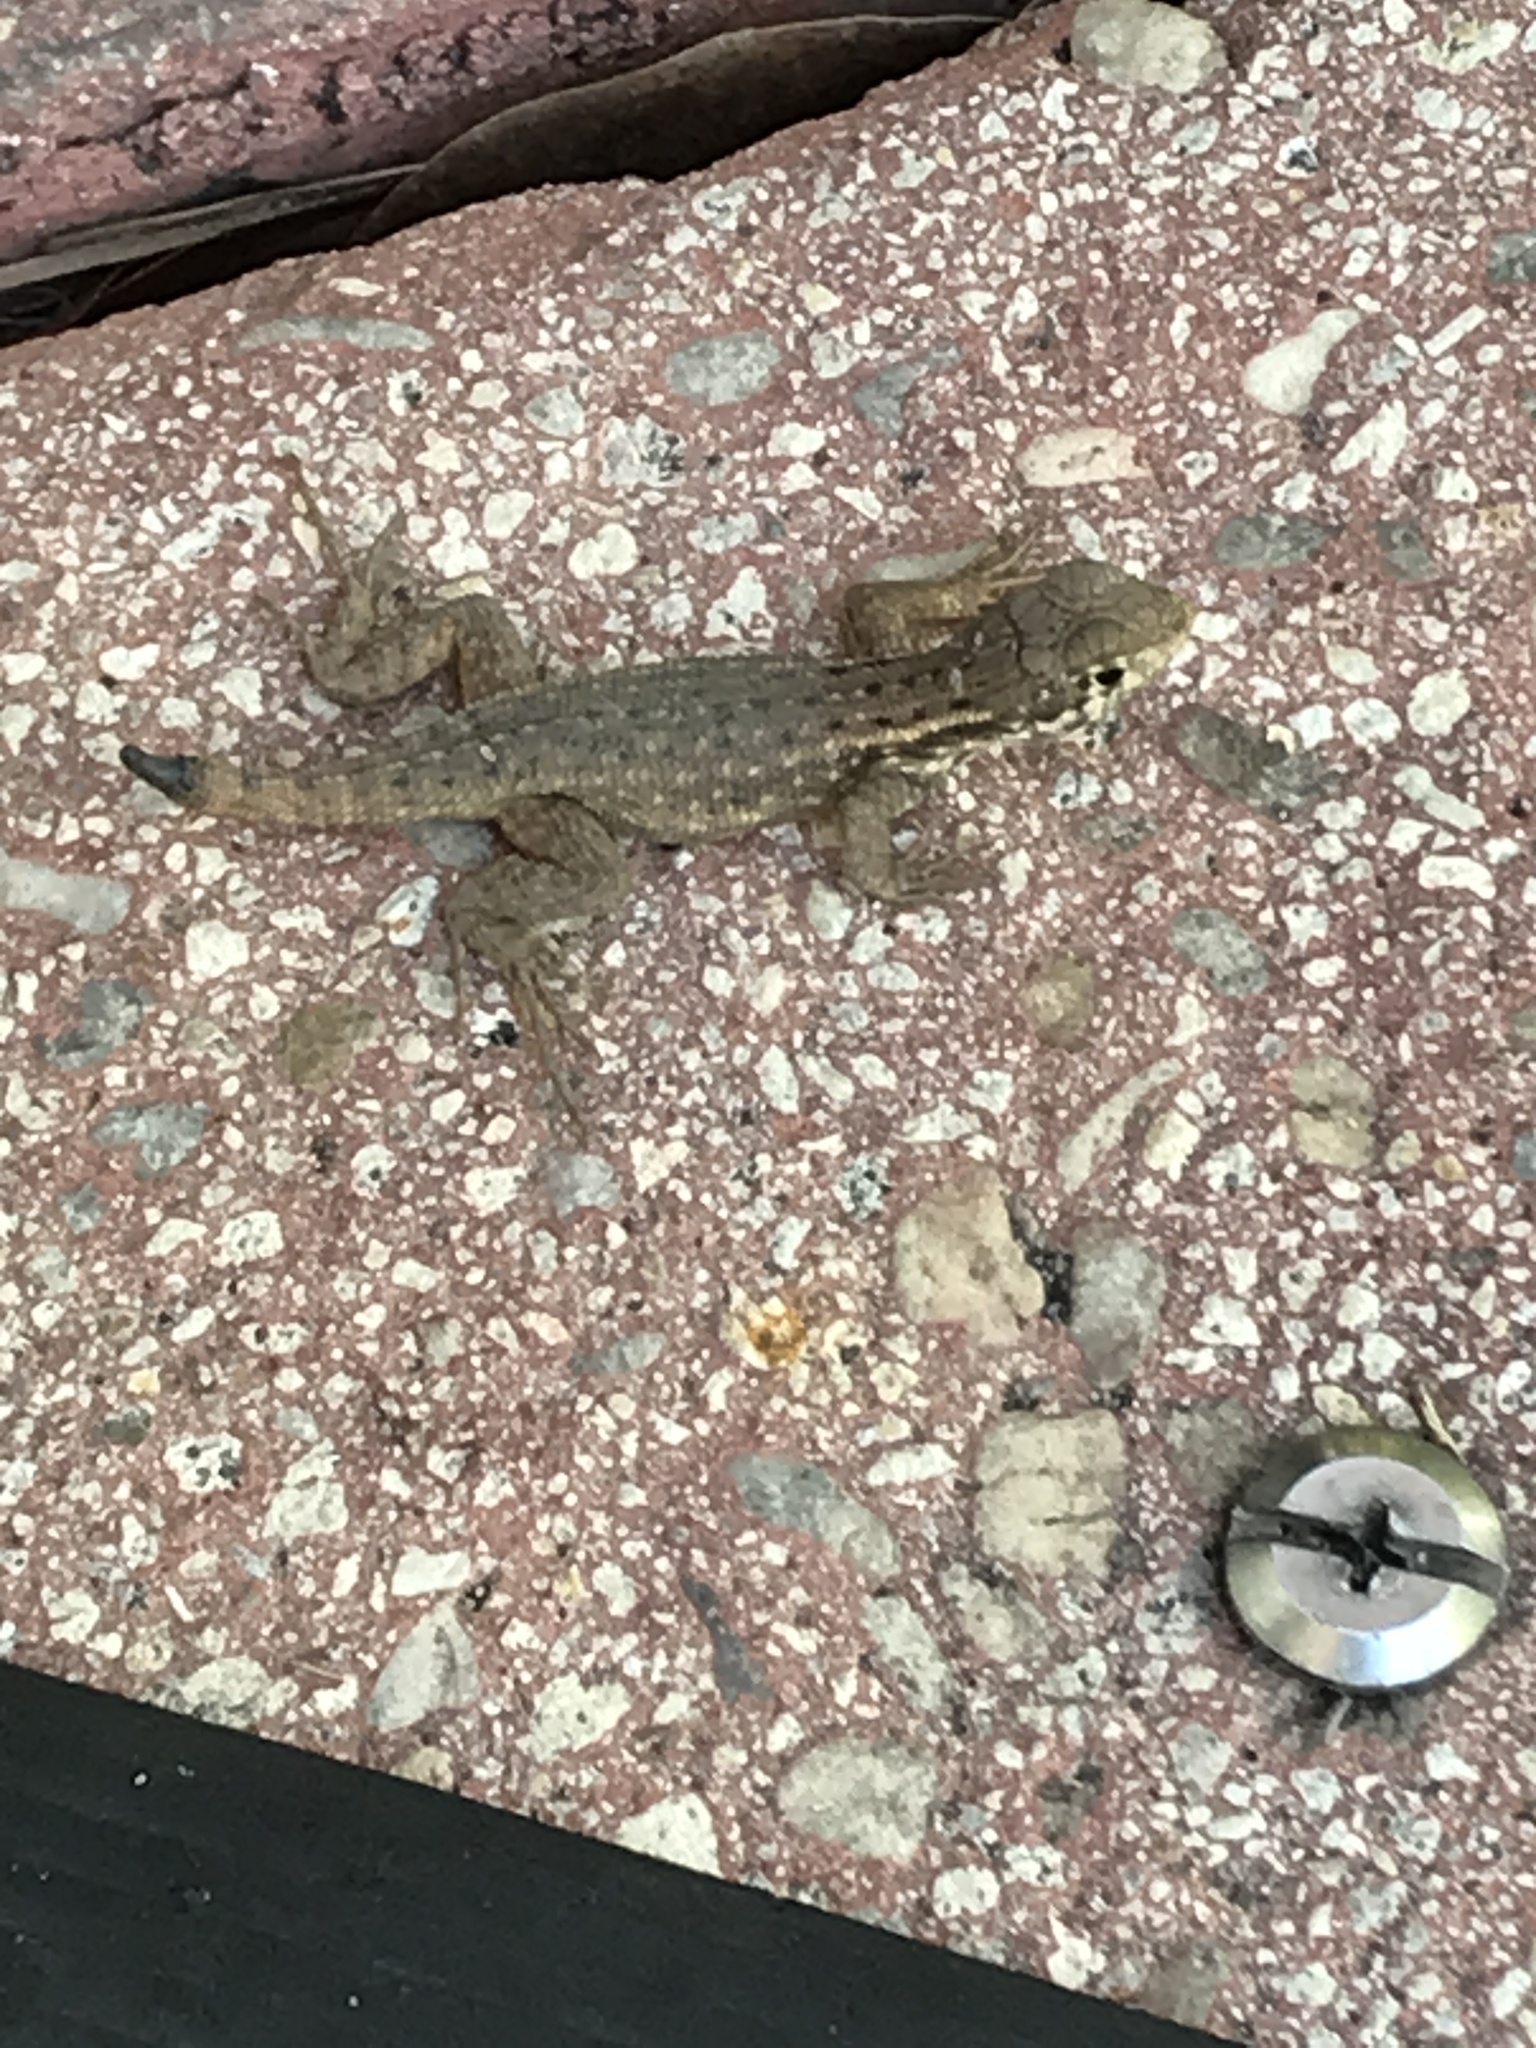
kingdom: Animalia
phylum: Chordata
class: Squamata
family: Leiocephalidae
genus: Leiocephalus
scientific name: Leiocephalus carinatus
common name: Northern curly-tailed lizard
